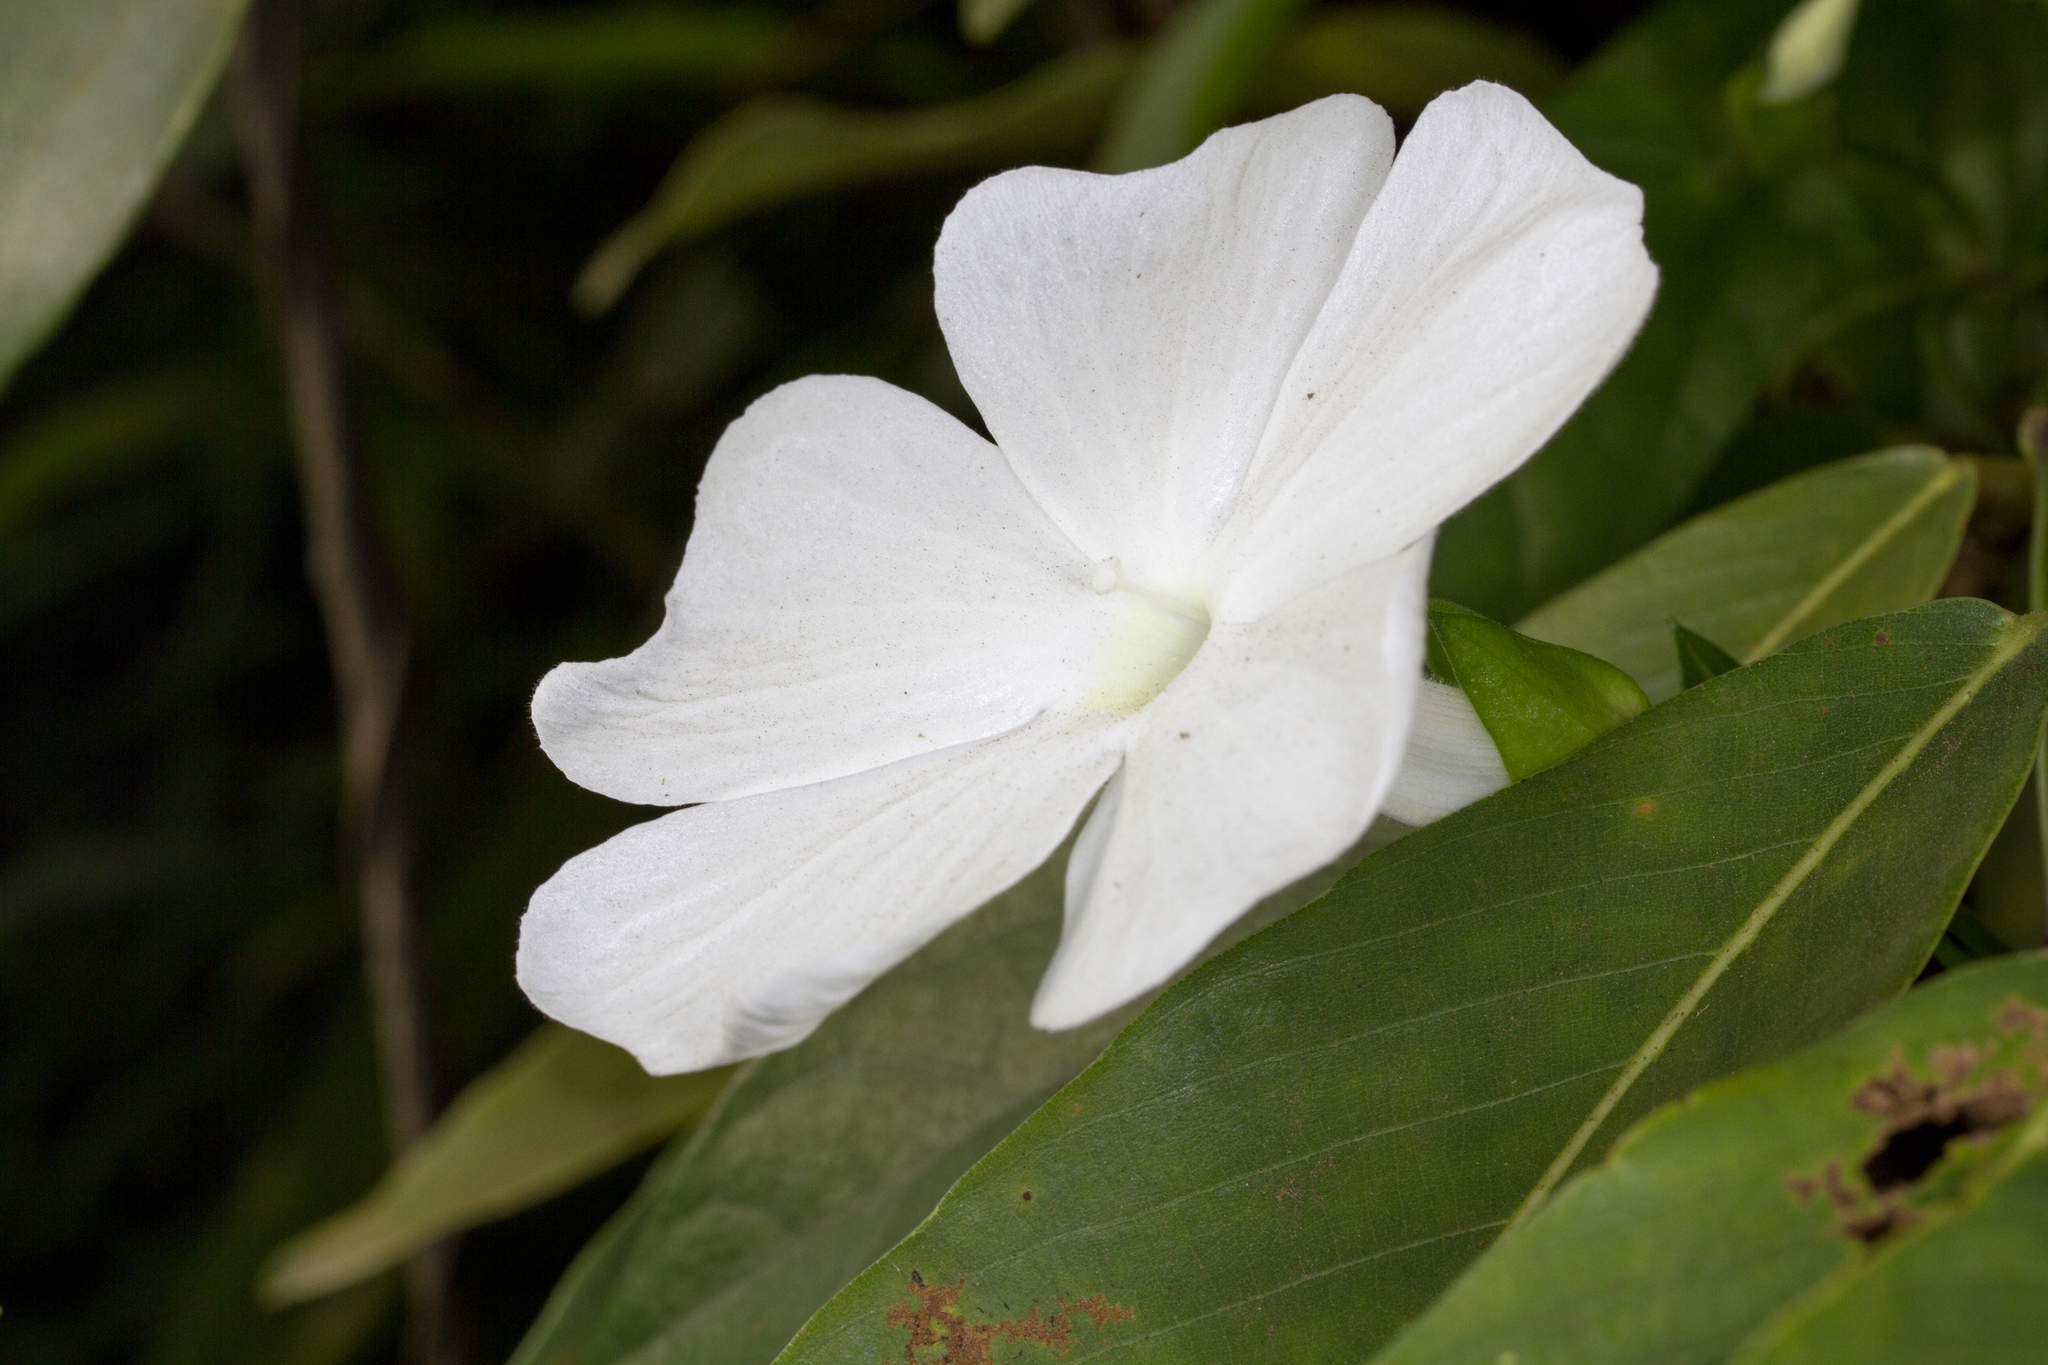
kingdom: Plantae
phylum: Tracheophyta
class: Magnoliopsida
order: Lamiales
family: Acanthaceae
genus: Thunbergia
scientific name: Thunbergia fragrans
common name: Whitelady
